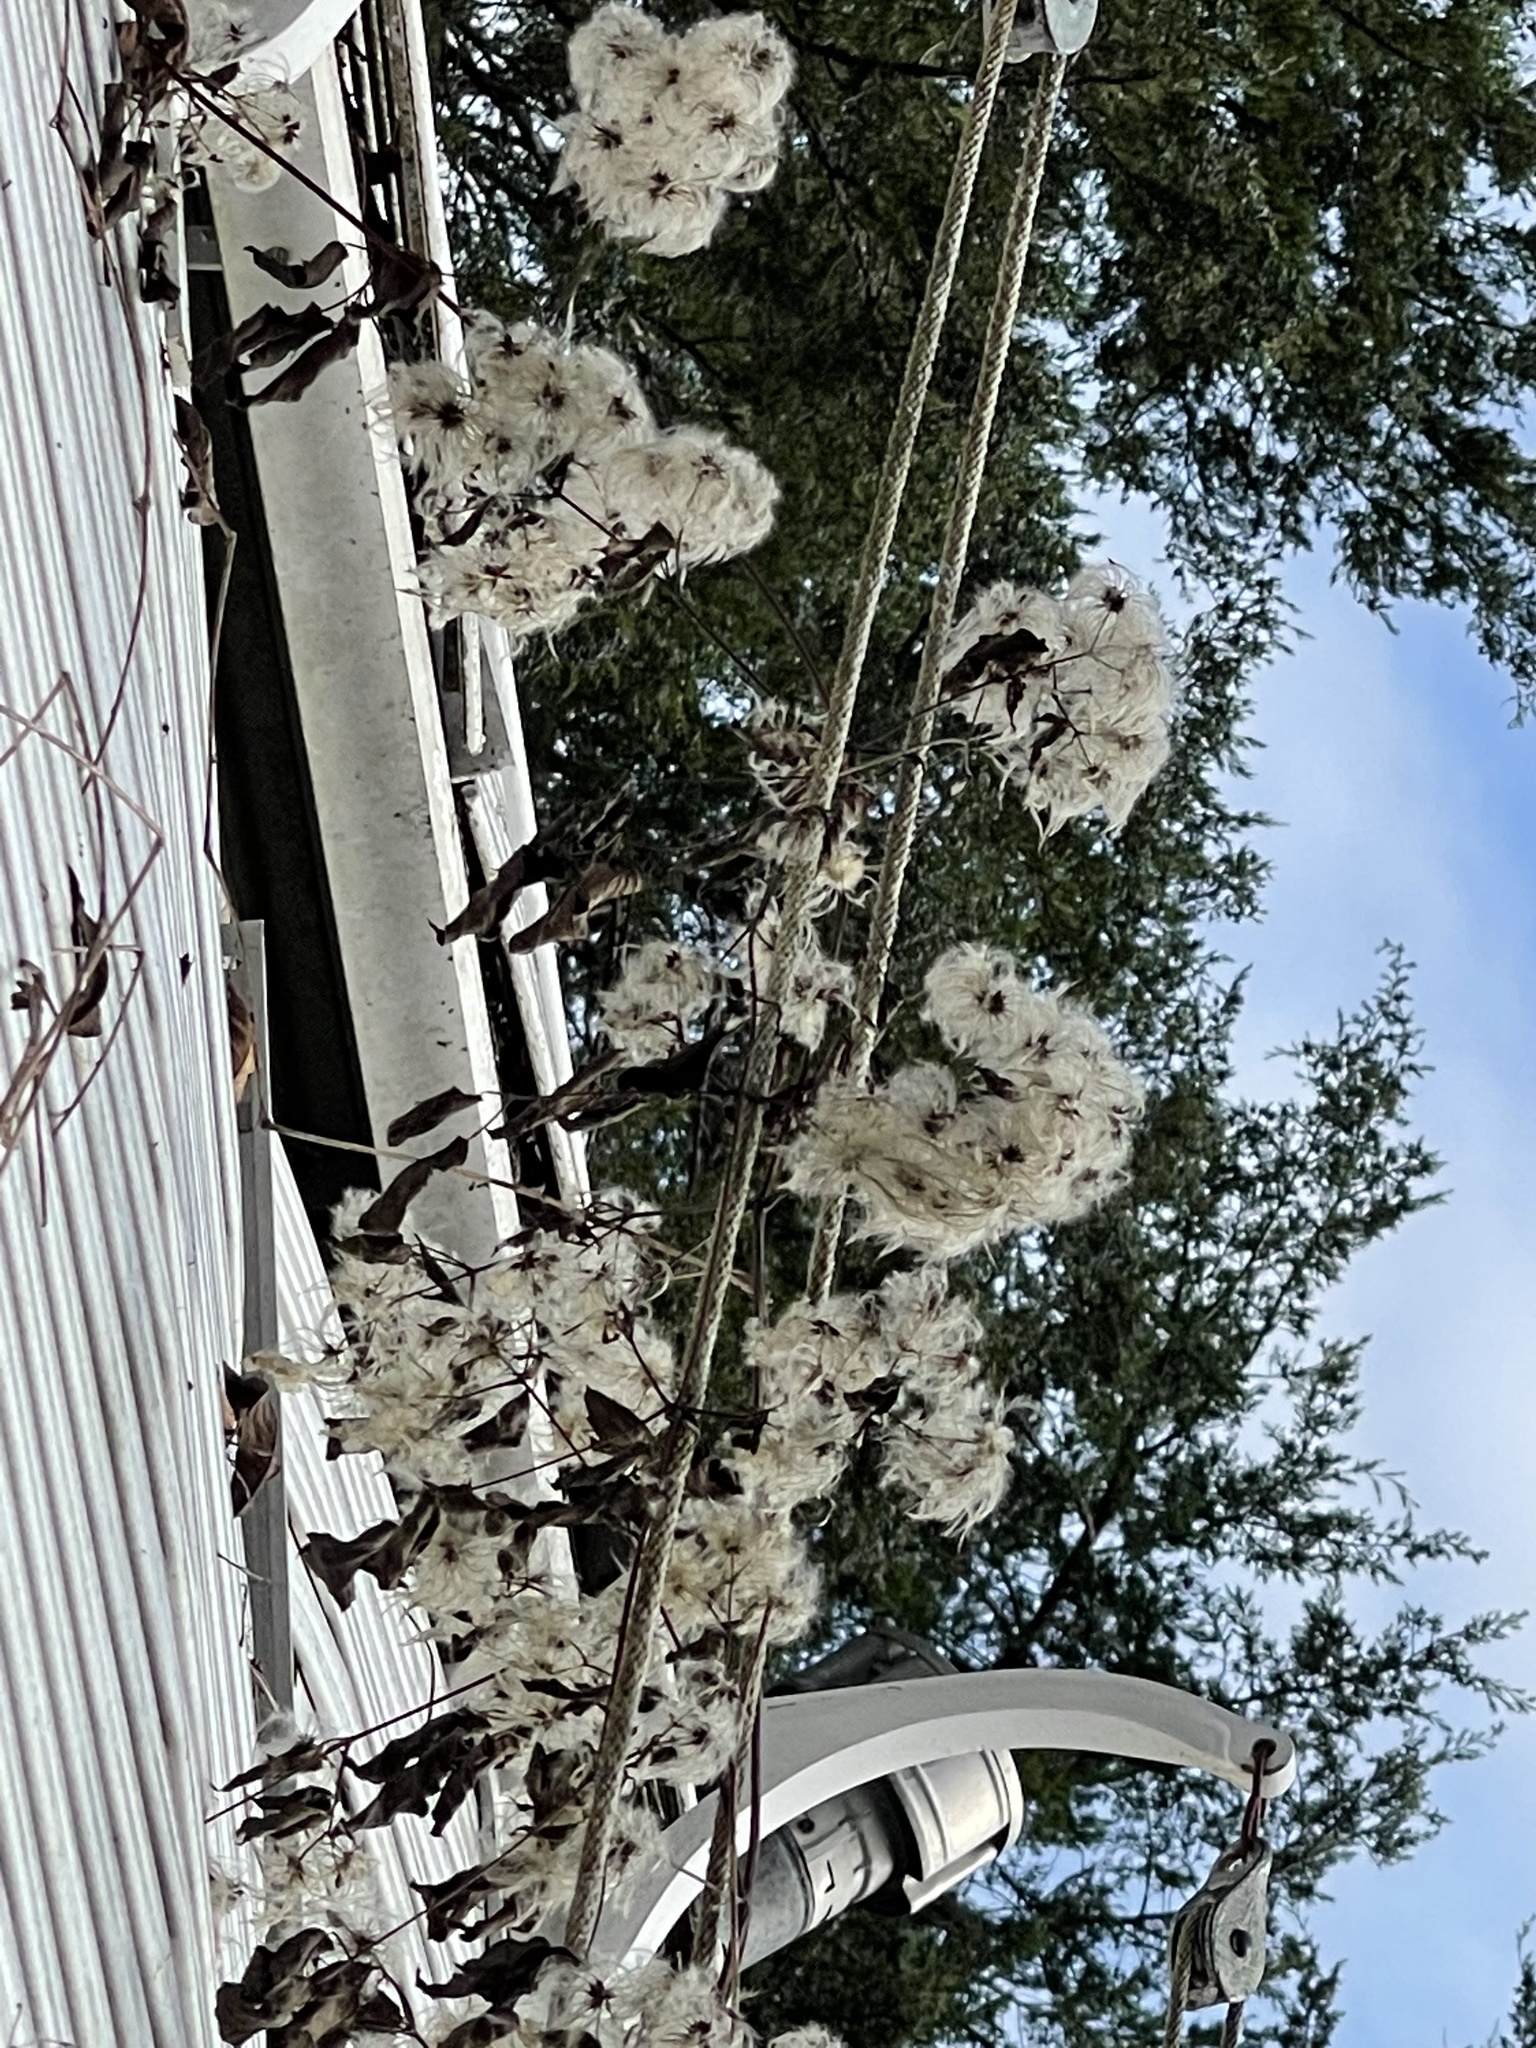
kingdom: Plantae
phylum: Tracheophyta
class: Magnoliopsida
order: Ranunculales
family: Ranunculaceae
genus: Clematis
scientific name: Clematis virginiana
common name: Virgin's-bower
